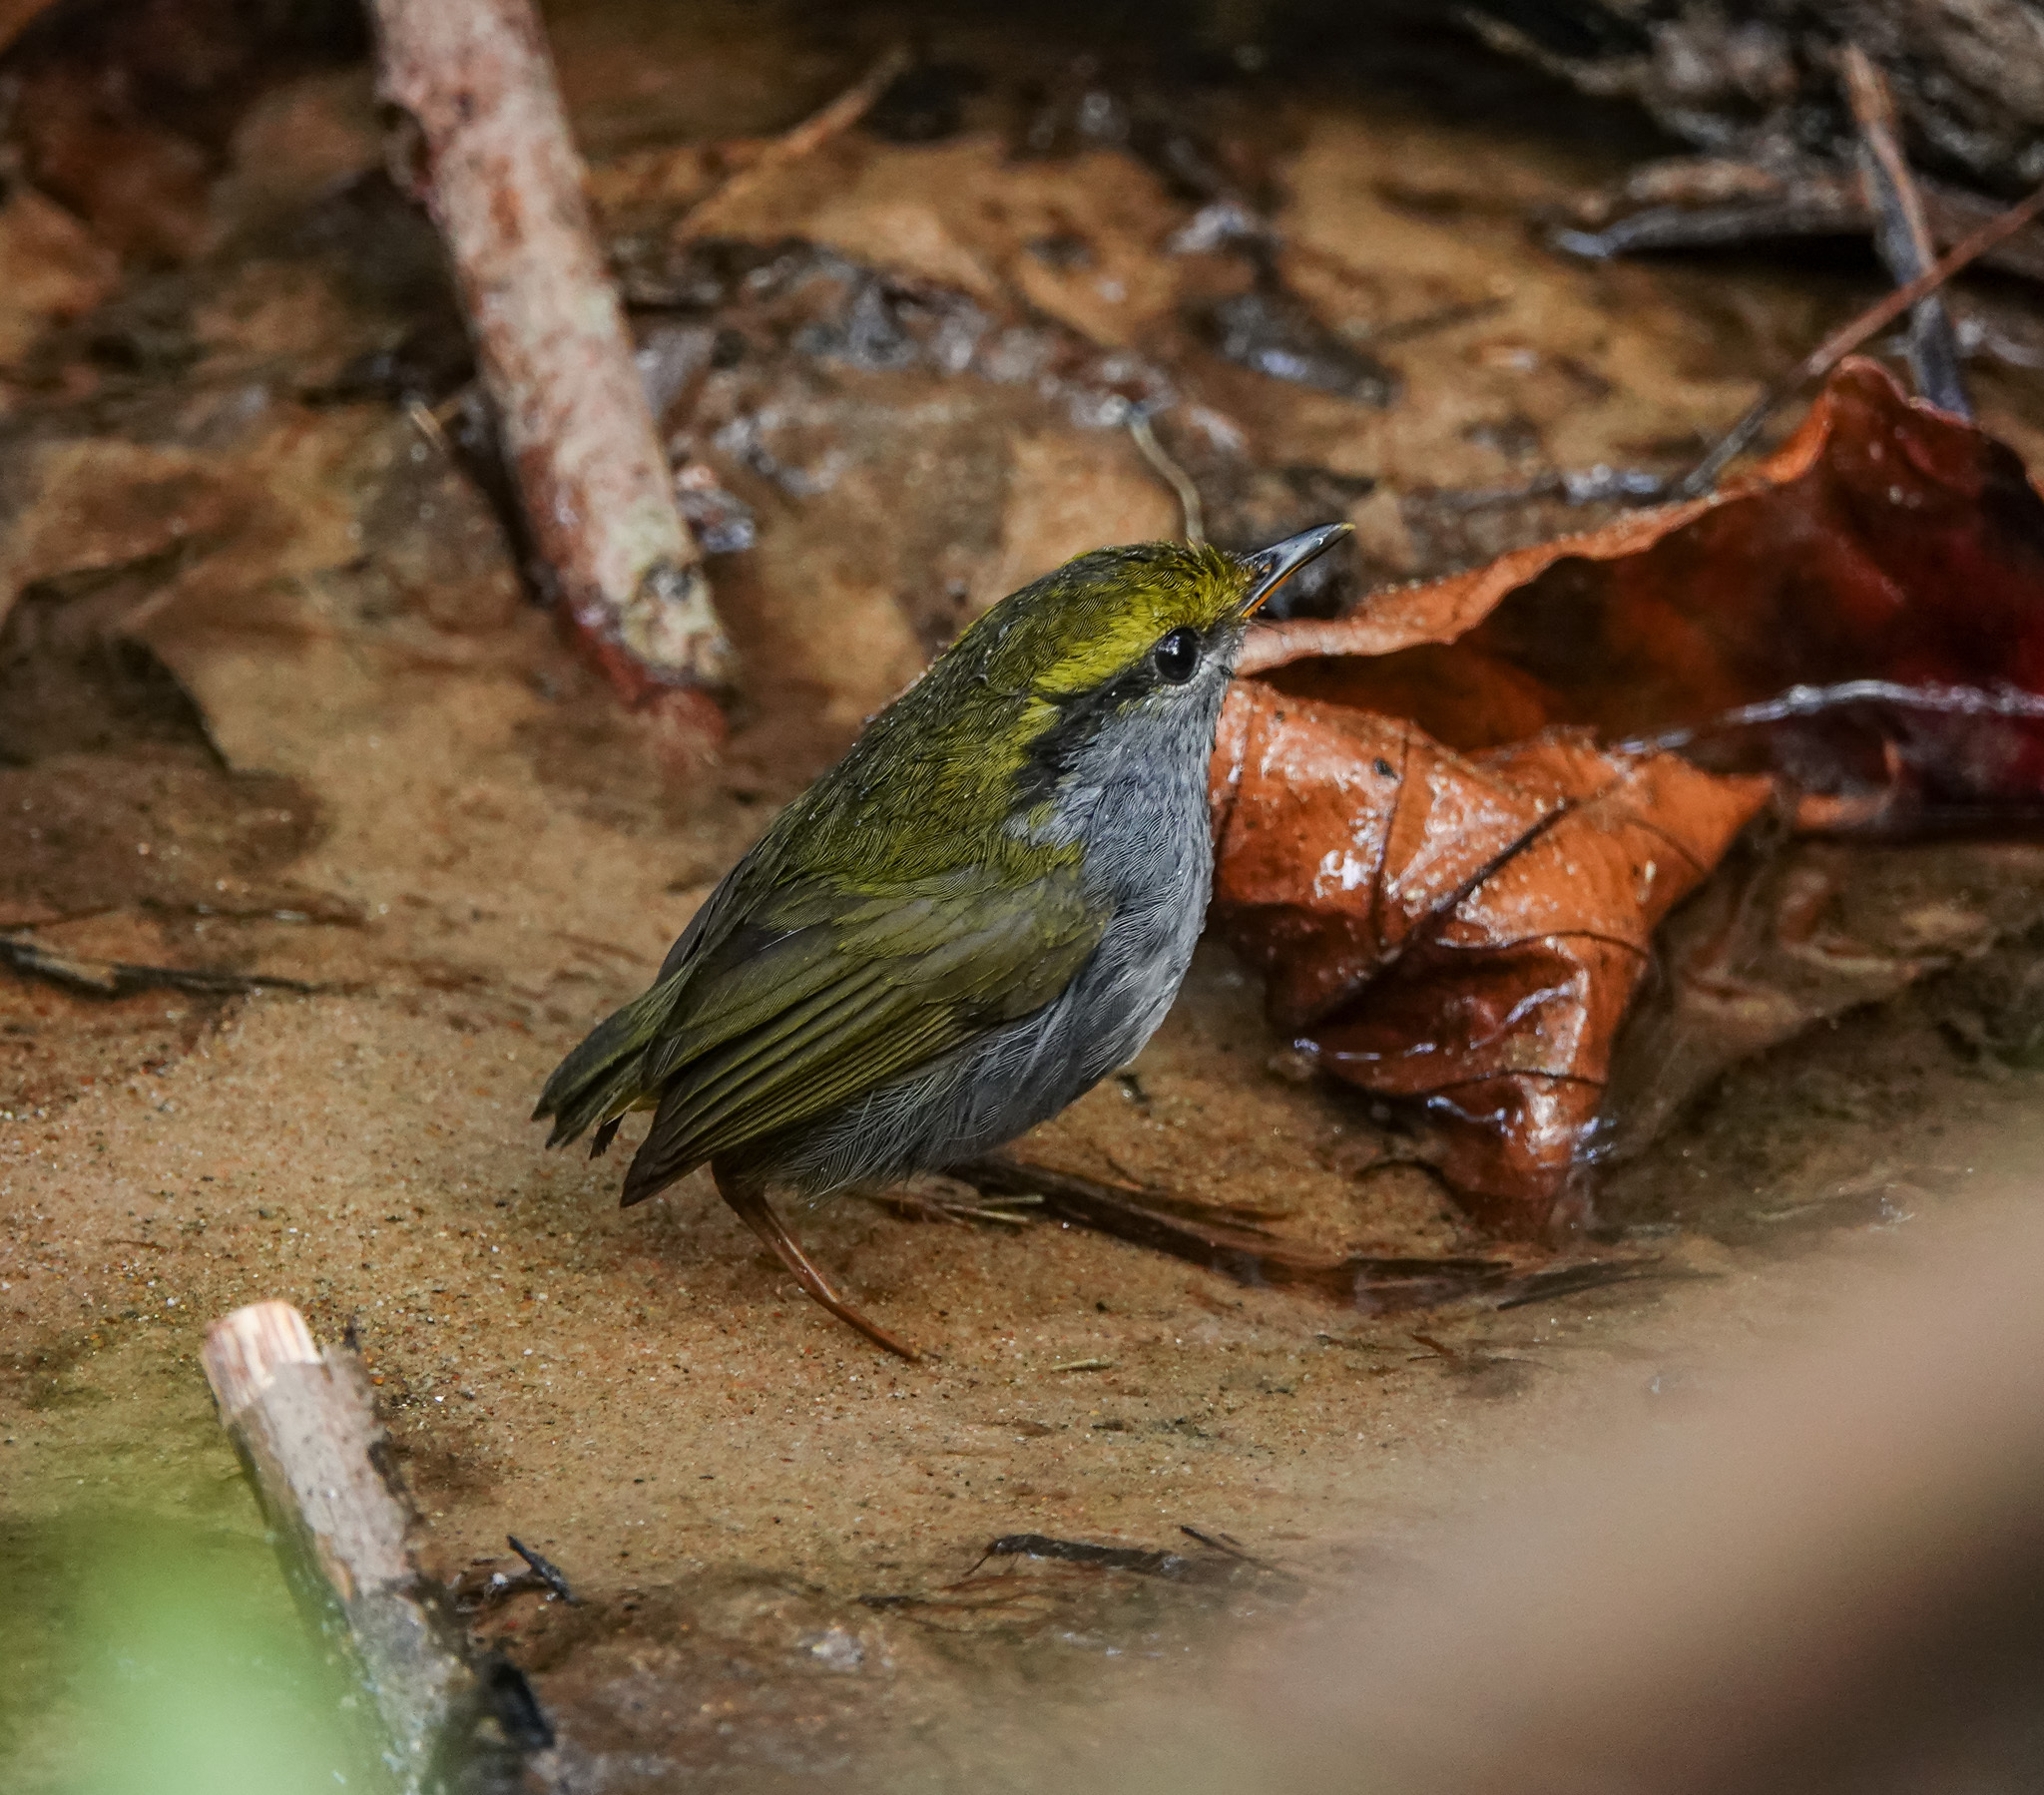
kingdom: Animalia
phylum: Chordata
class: Aves
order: Passeriformes
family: Cettiidae
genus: Tesia
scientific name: Tesia cyaniventer
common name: Grey-bellied tesia
